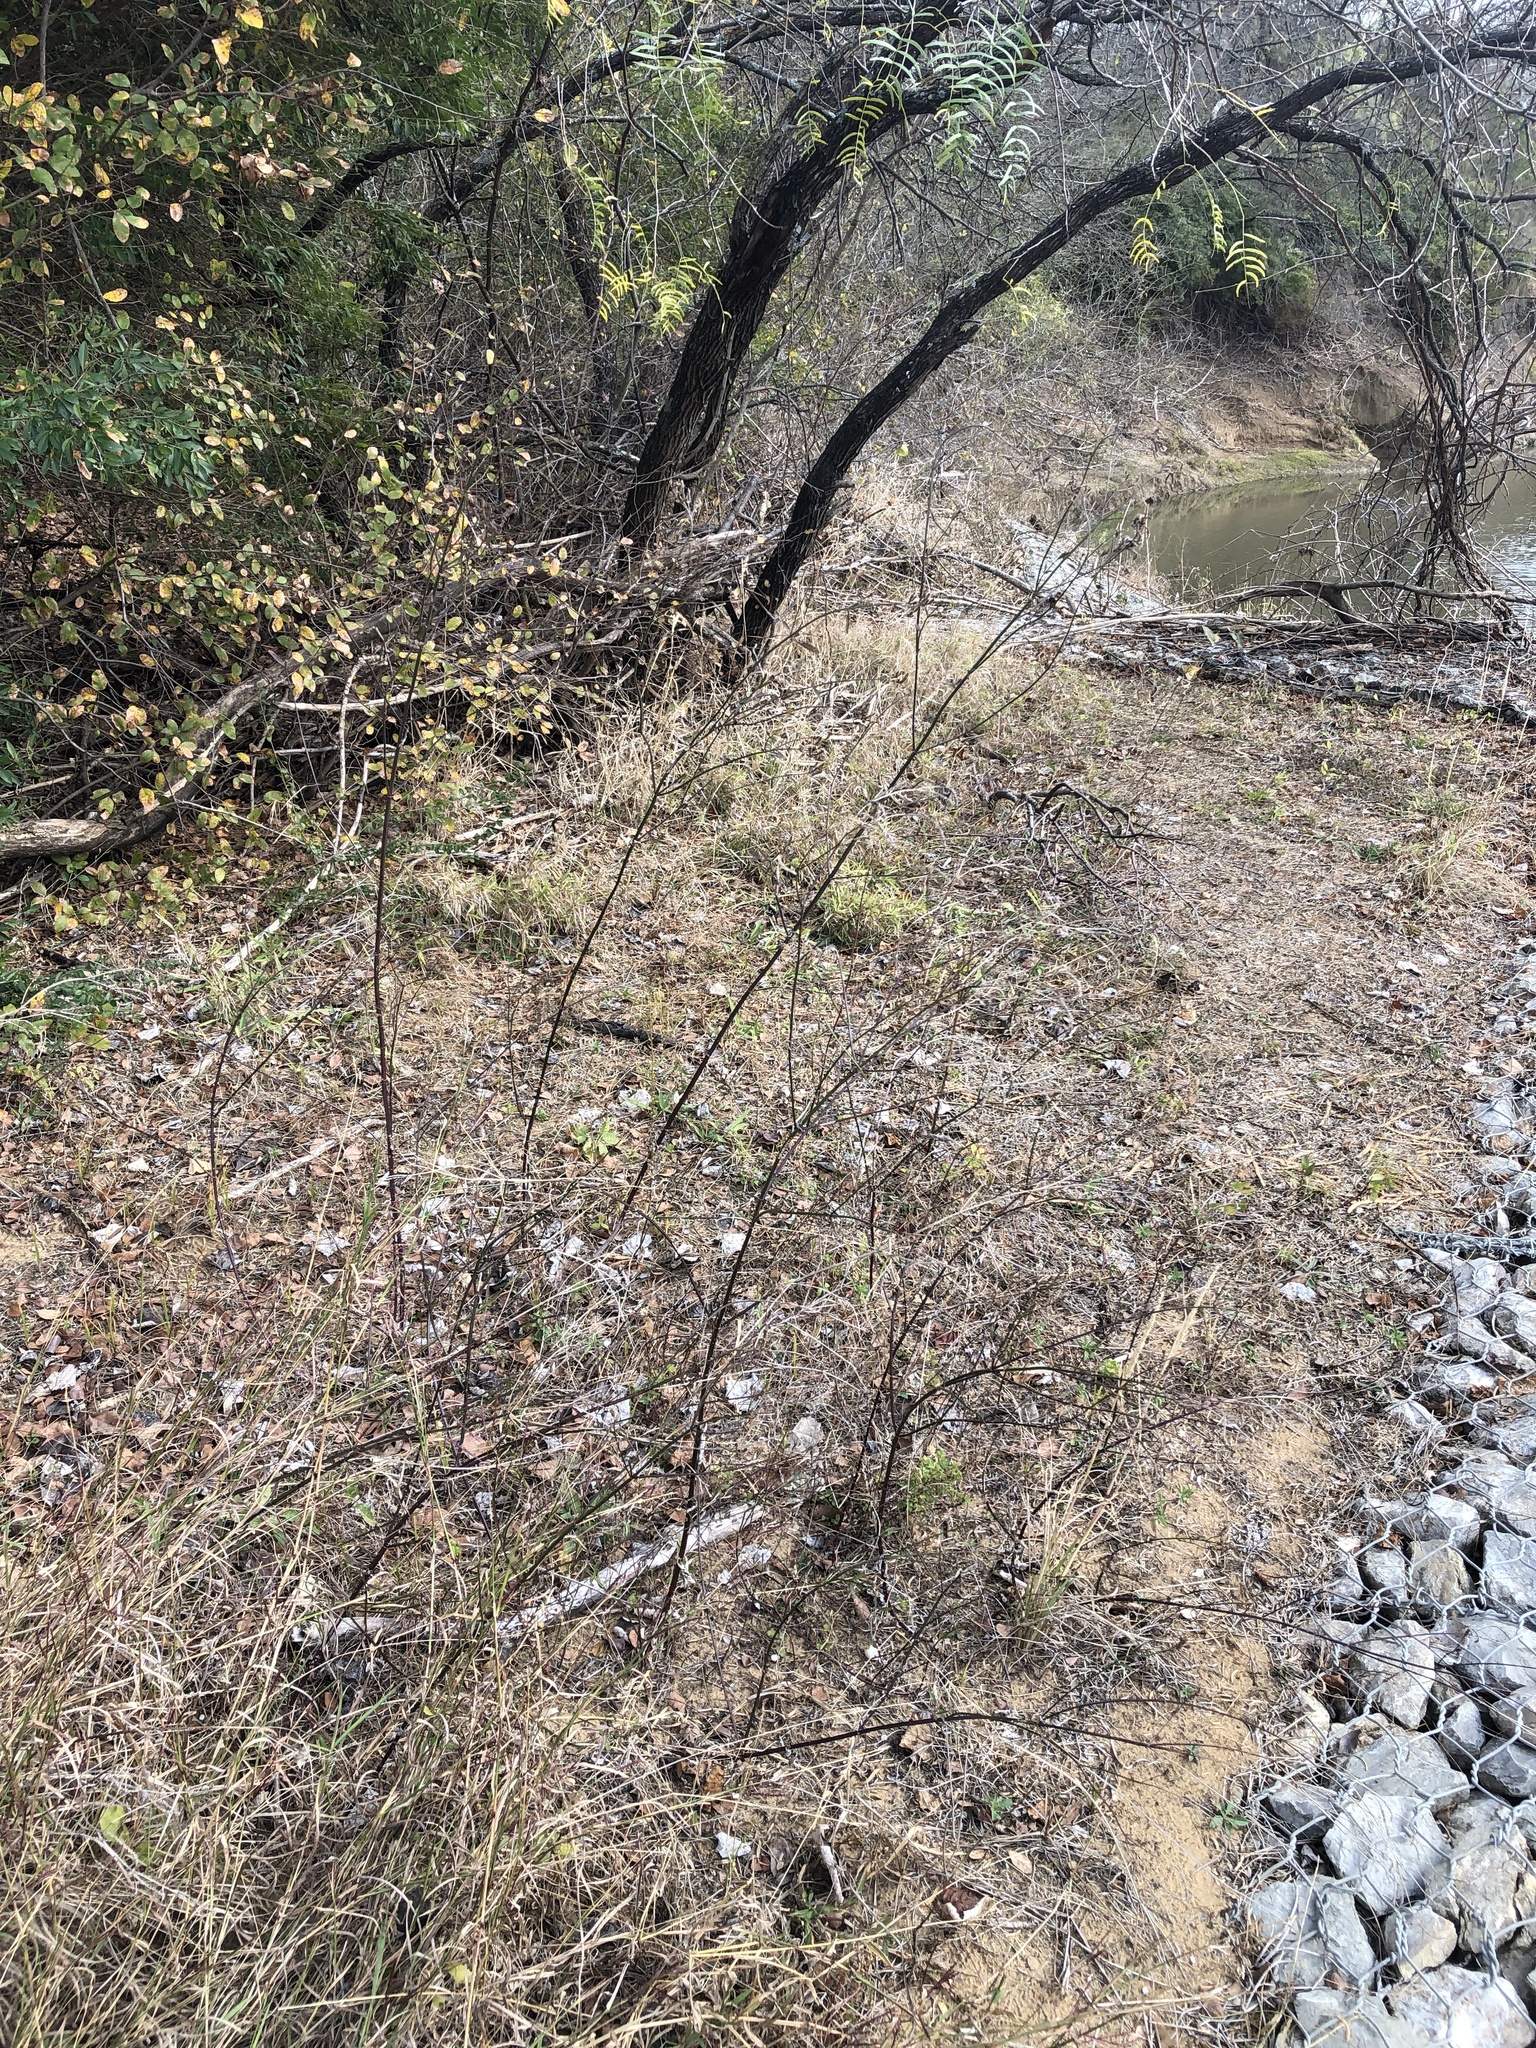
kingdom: Plantae
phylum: Tracheophyta
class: Magnoliopsida
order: Lamiales
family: Verbenaceae
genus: Verbena
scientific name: Verbena brasiliensis
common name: Brazilian vervain
